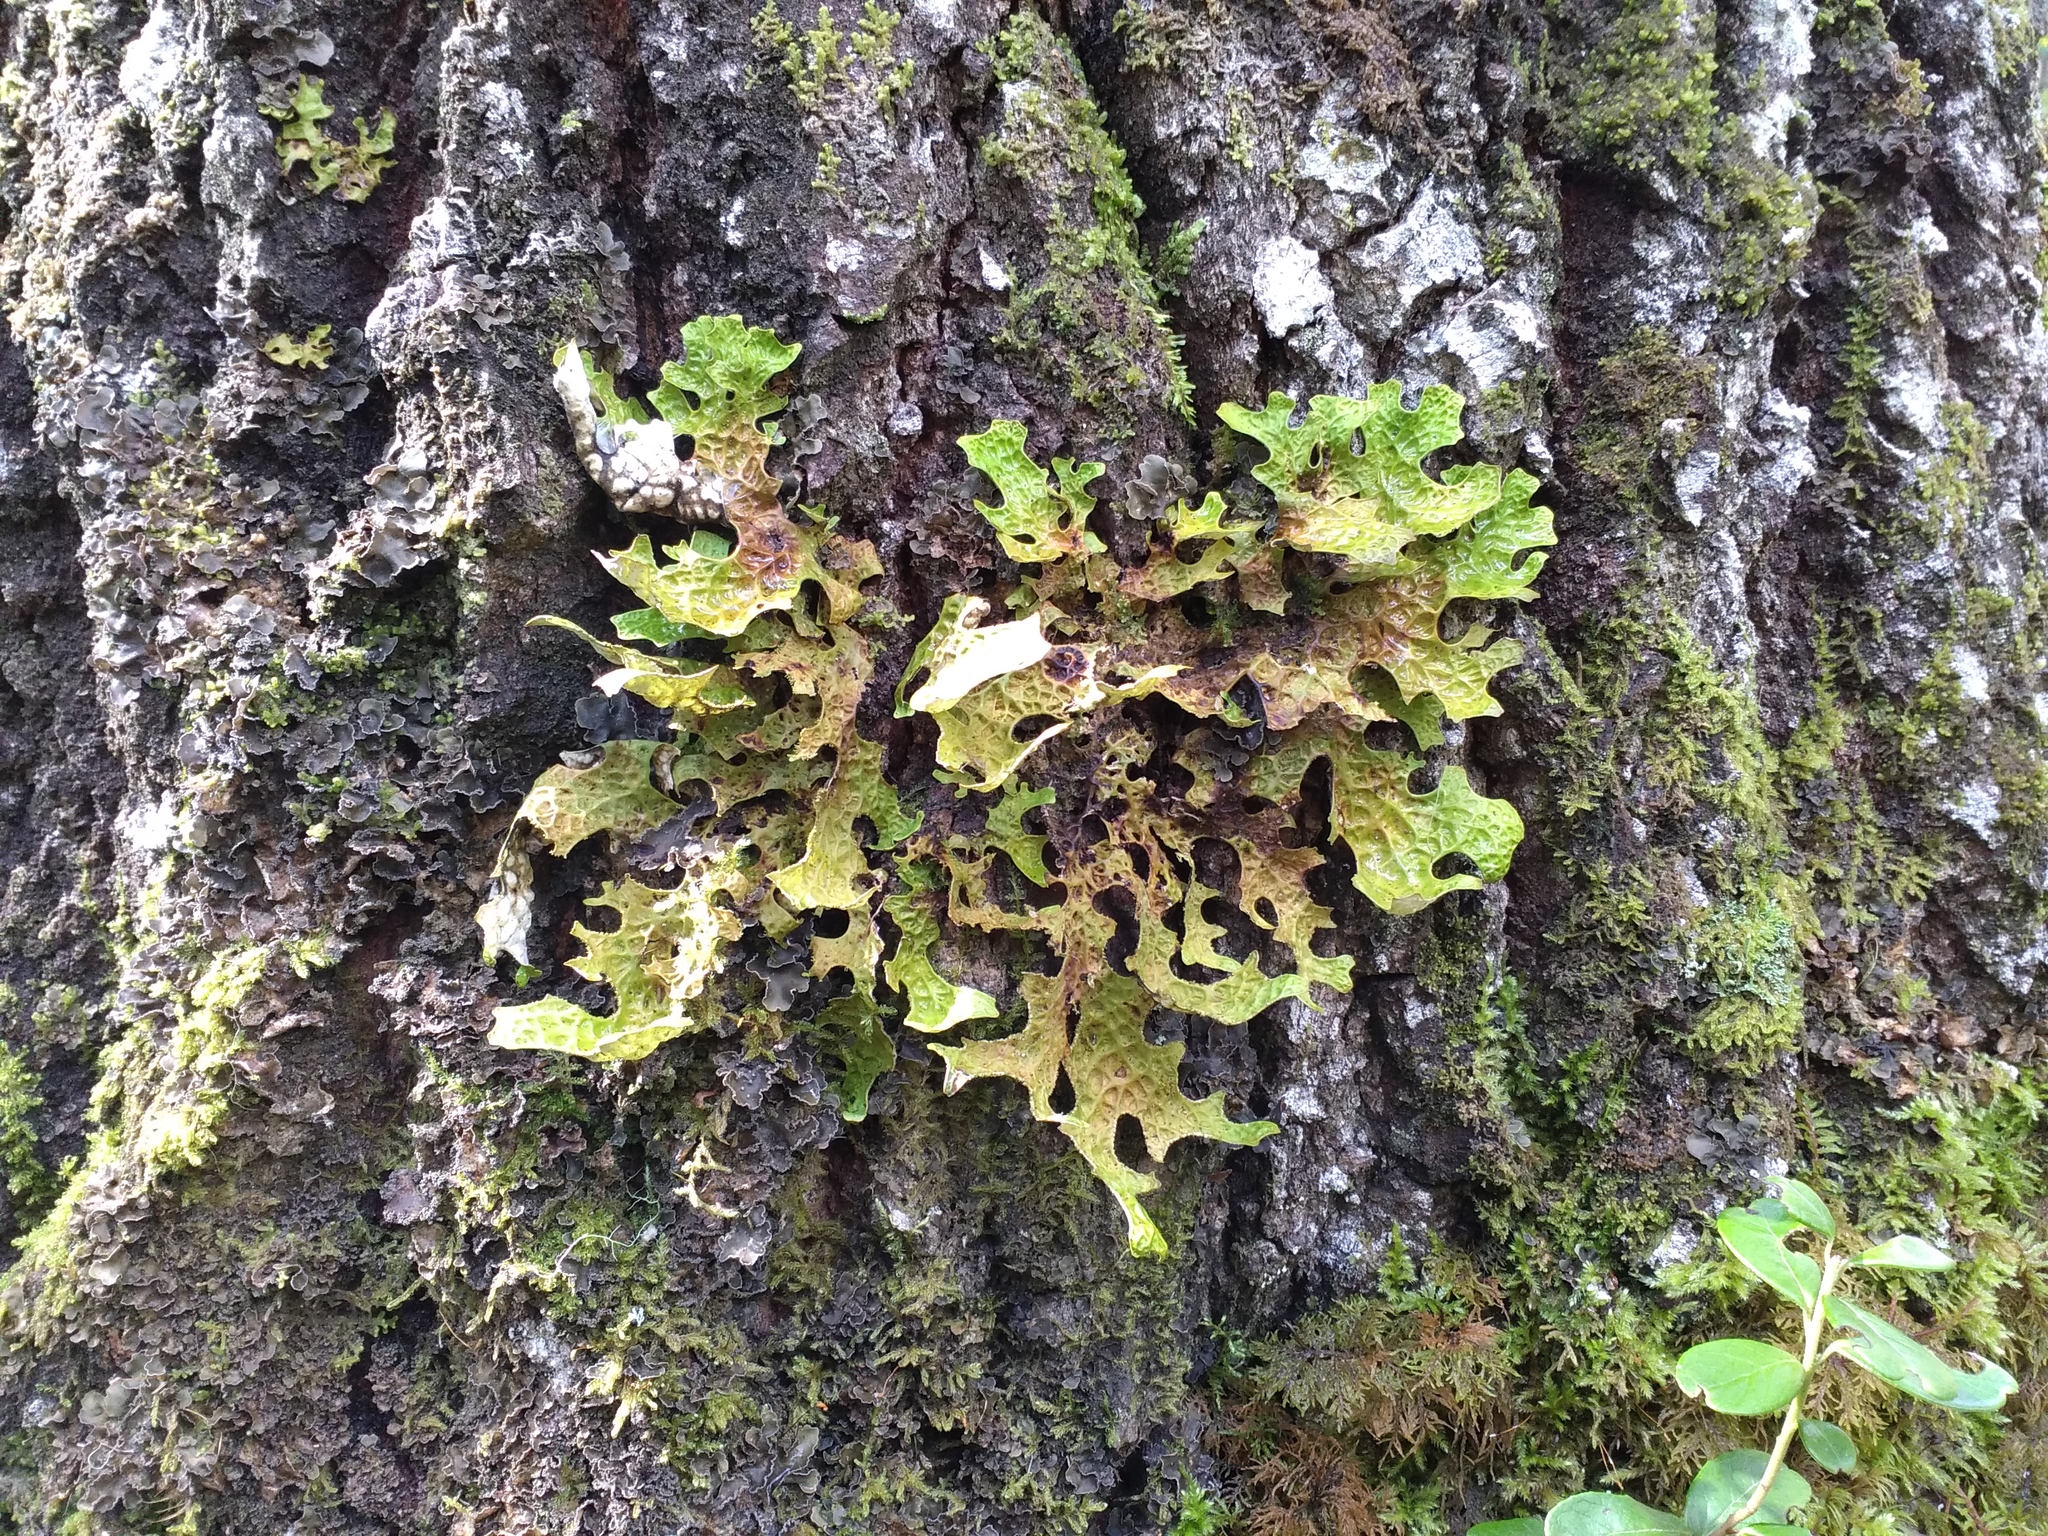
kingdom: Fungi
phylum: Ascomycota
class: Lecanoromycetes
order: Peltigerales
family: Lobariaceae
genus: Lobaria
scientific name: Lobaria pulmonaria
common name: Lungwort
